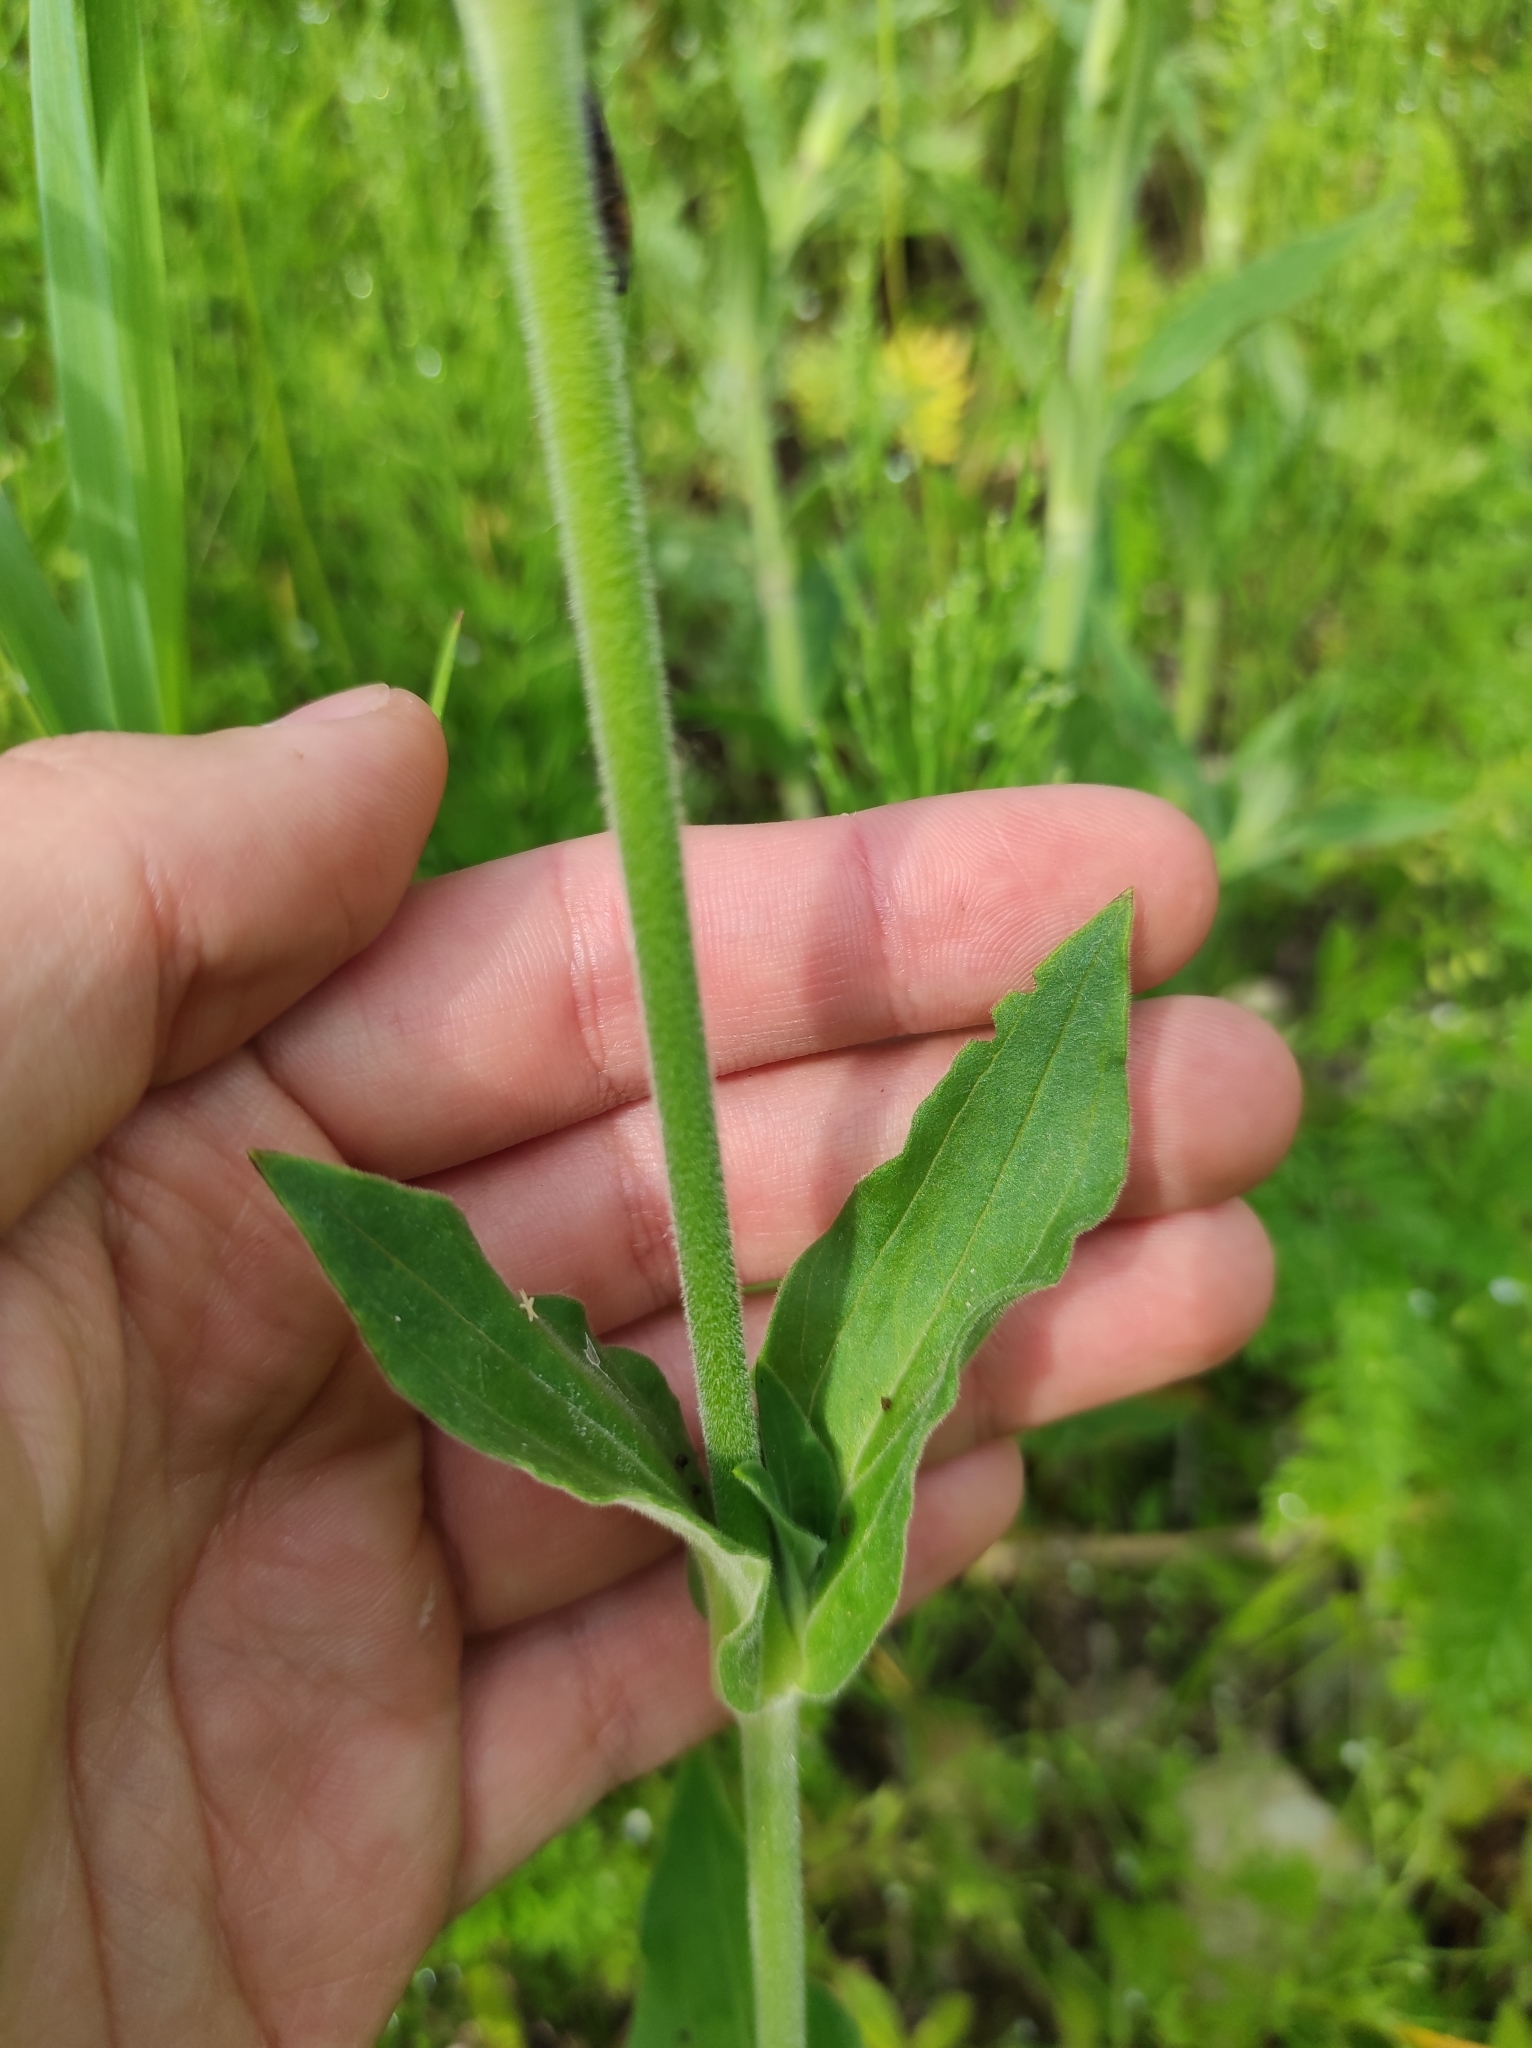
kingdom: Plantae
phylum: Tracheophyta
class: Magnoliopsida
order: Caryophyllales
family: Caryophyllaceae
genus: Silene
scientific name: Silene latifolia
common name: White campion
